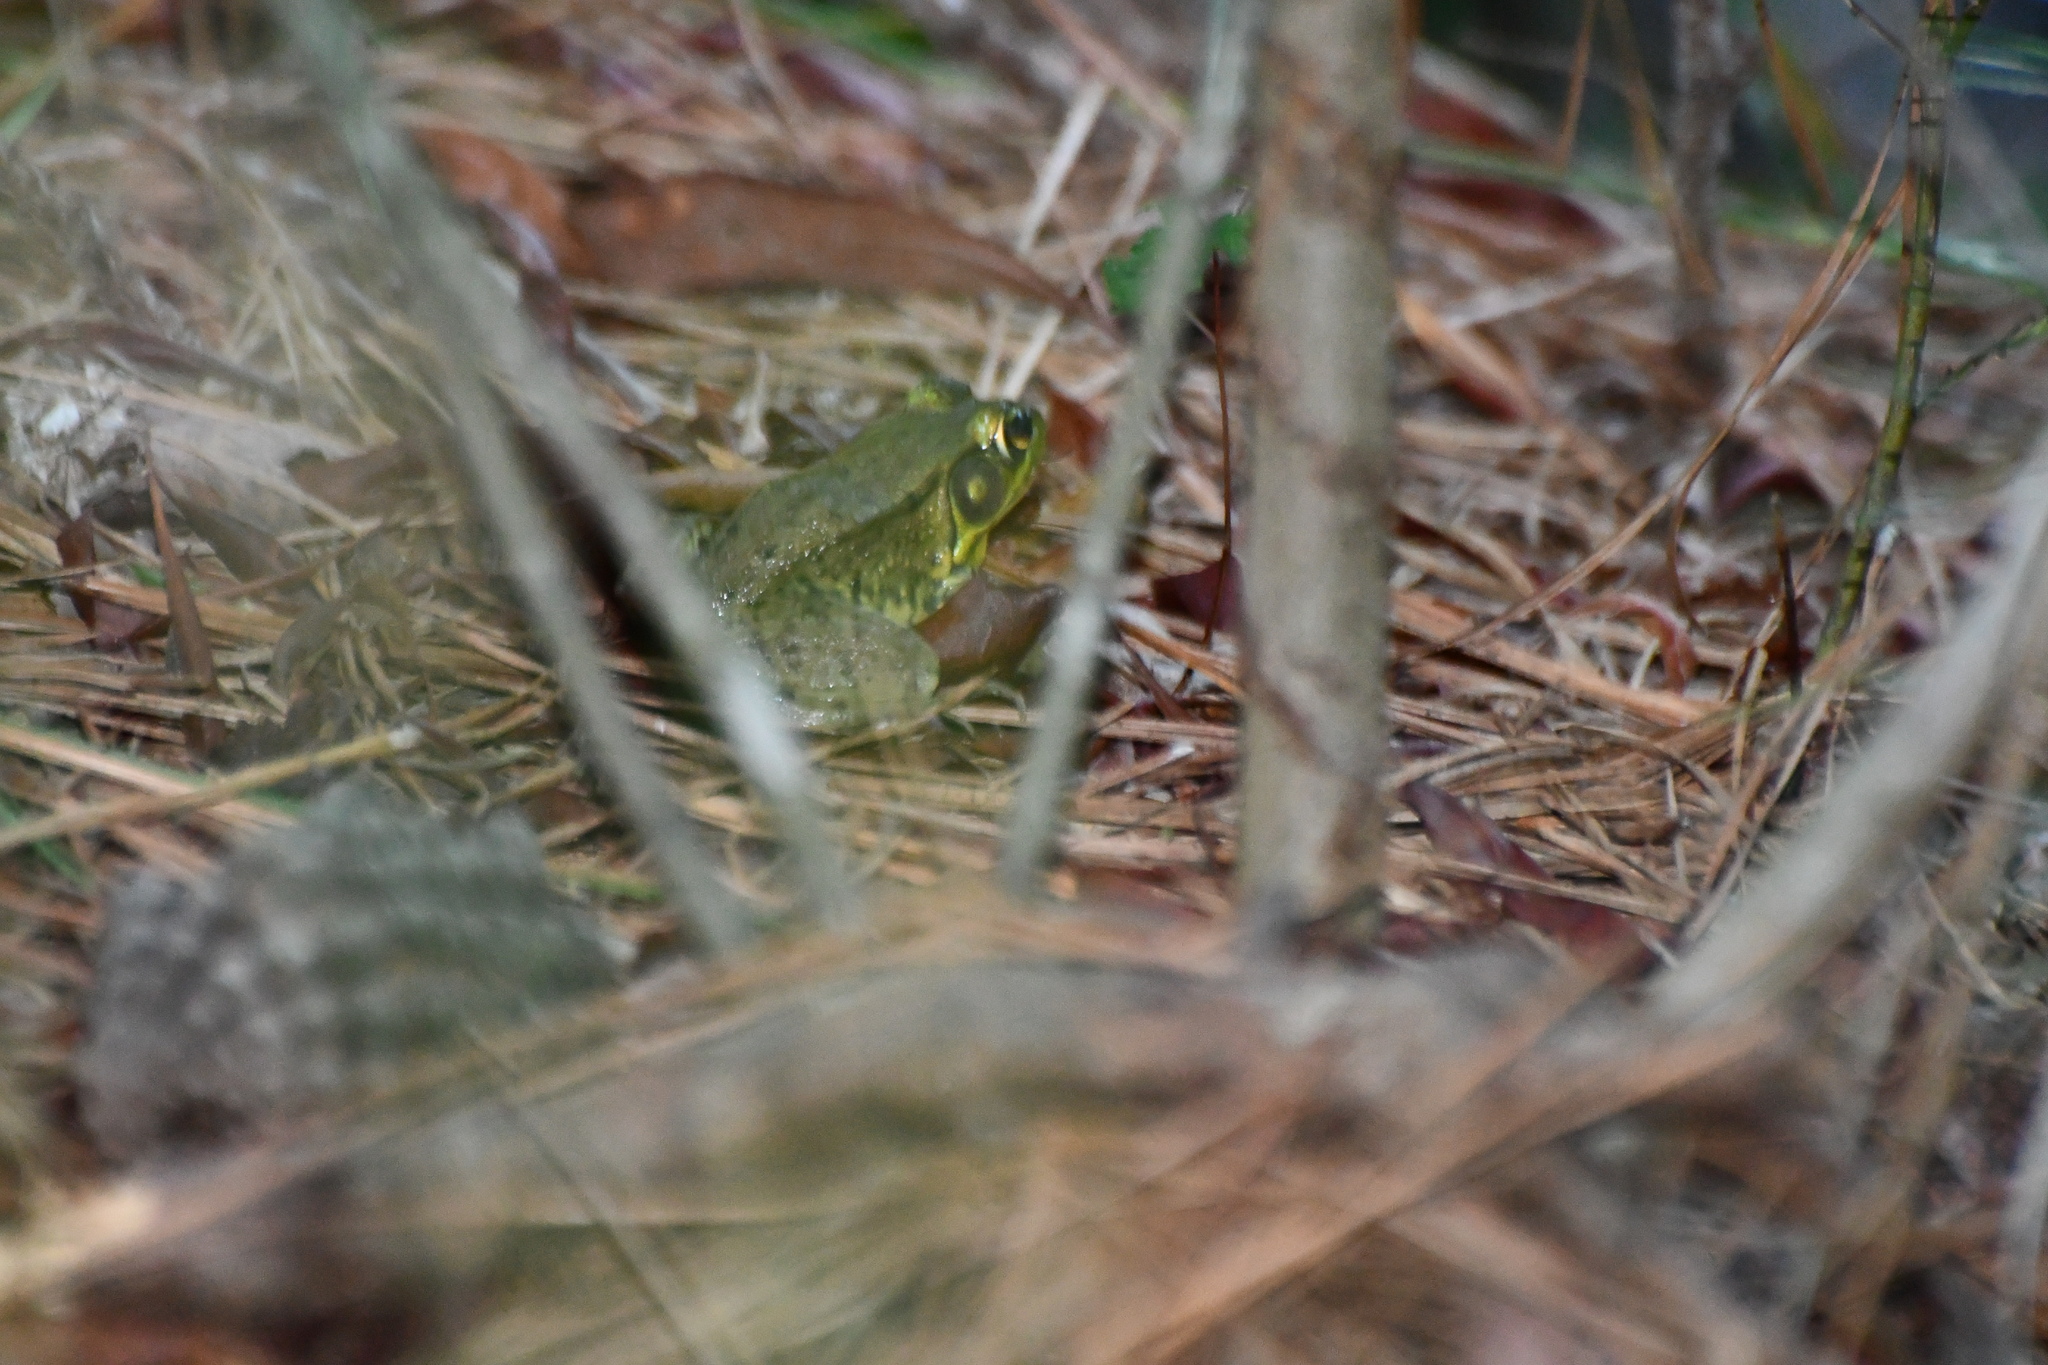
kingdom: Animalia
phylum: Chordata
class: Amphibia
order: Anura
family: Ranidae
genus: Lithobates
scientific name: Lithobates clamitans
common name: Green frog
